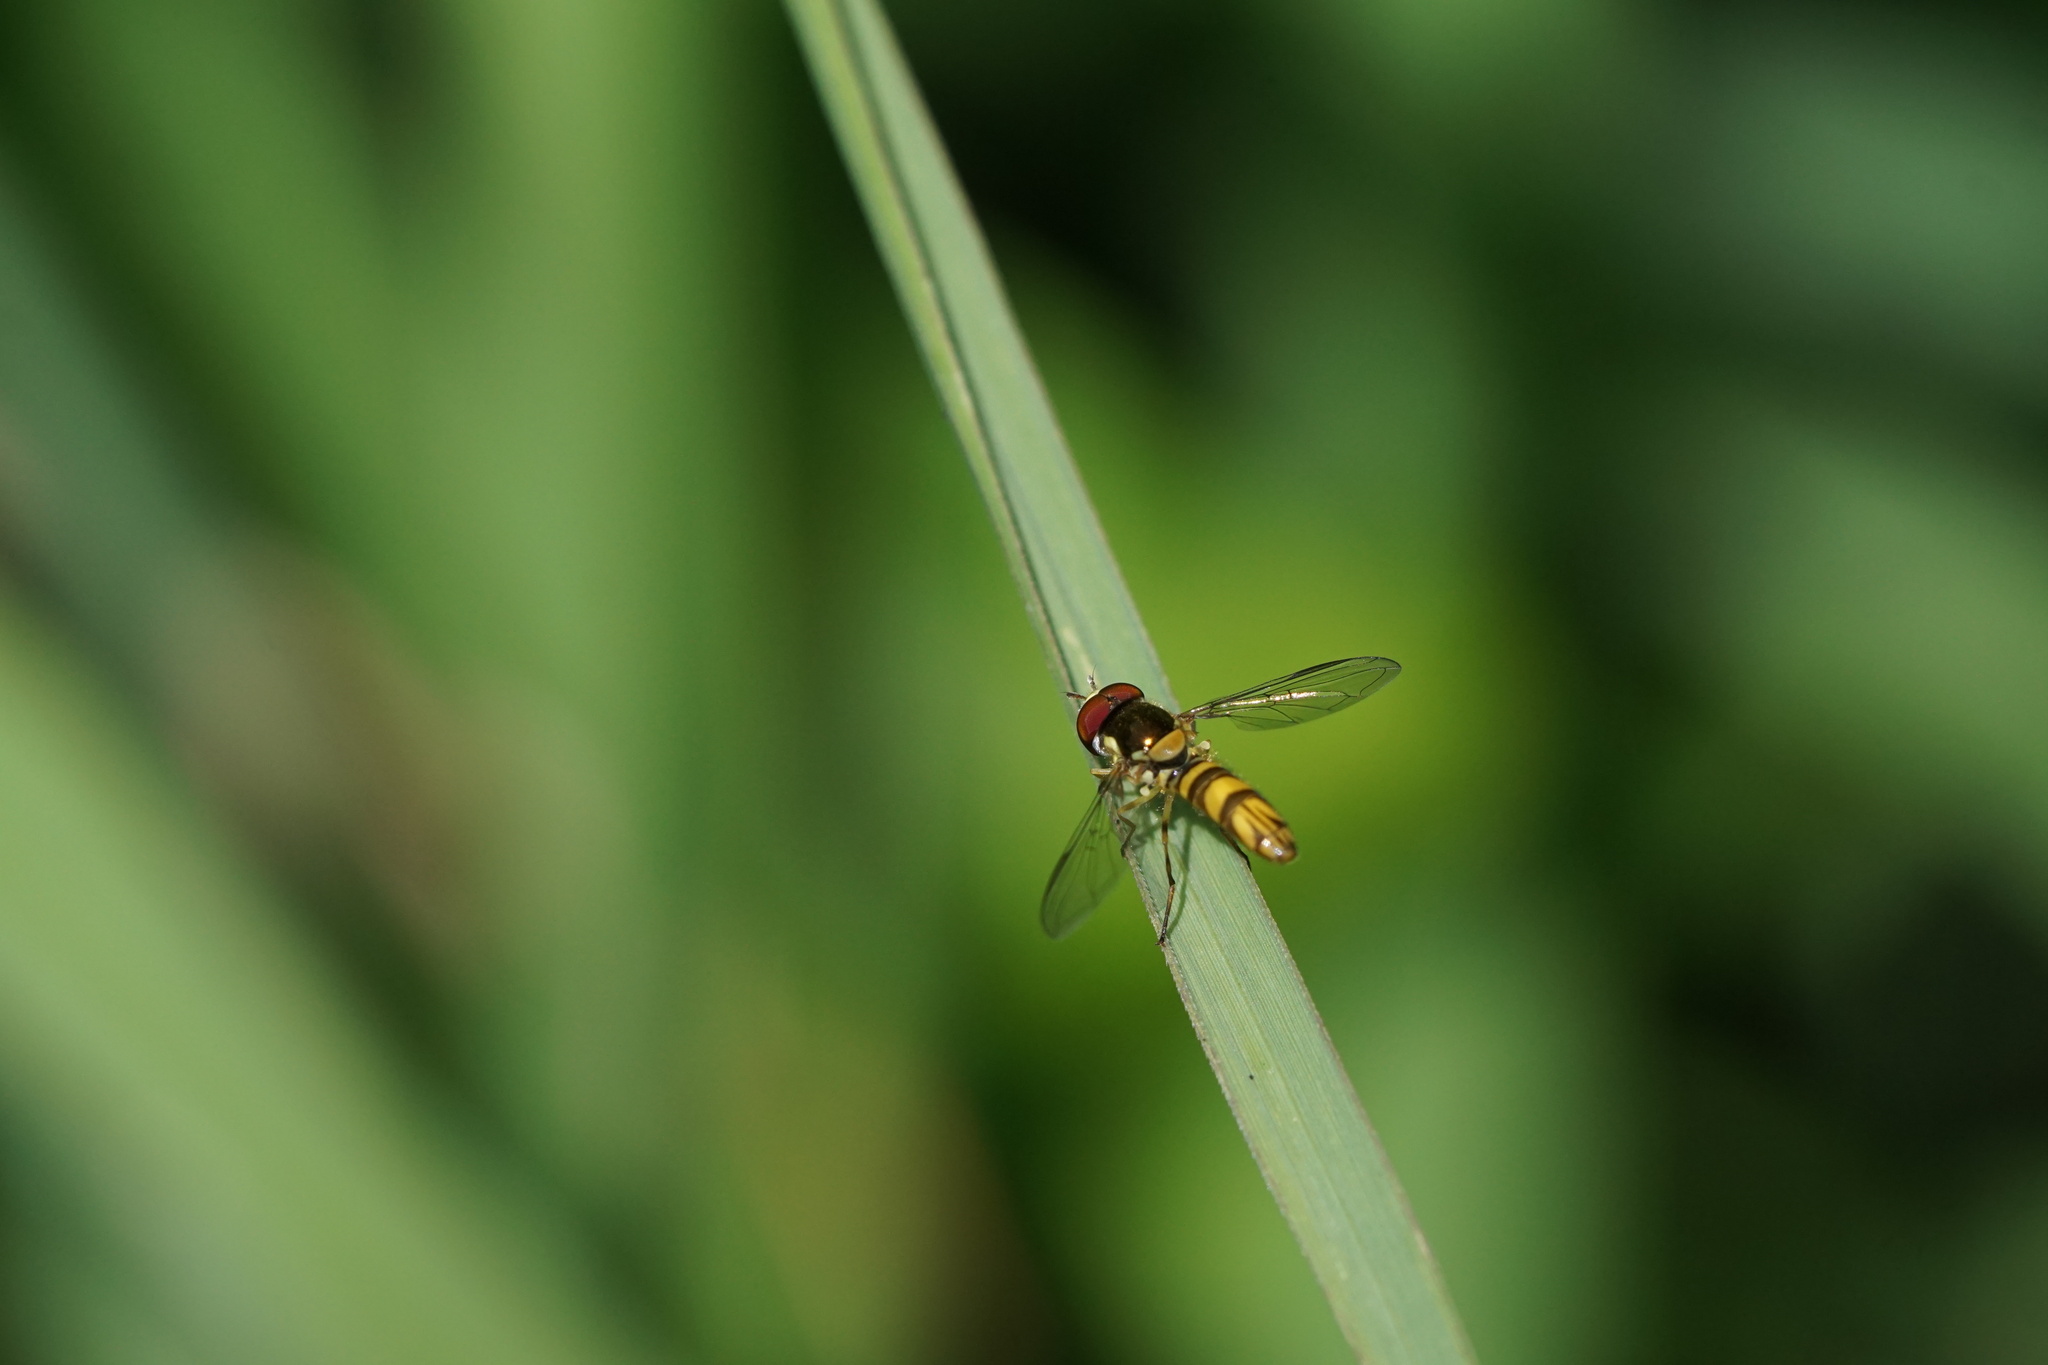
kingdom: Animalia
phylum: Arthropoda
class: Insecta
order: Diptera
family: Syrphidae
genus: Allograpta
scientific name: Allograpta obliqua
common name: Common oblique syrphid
